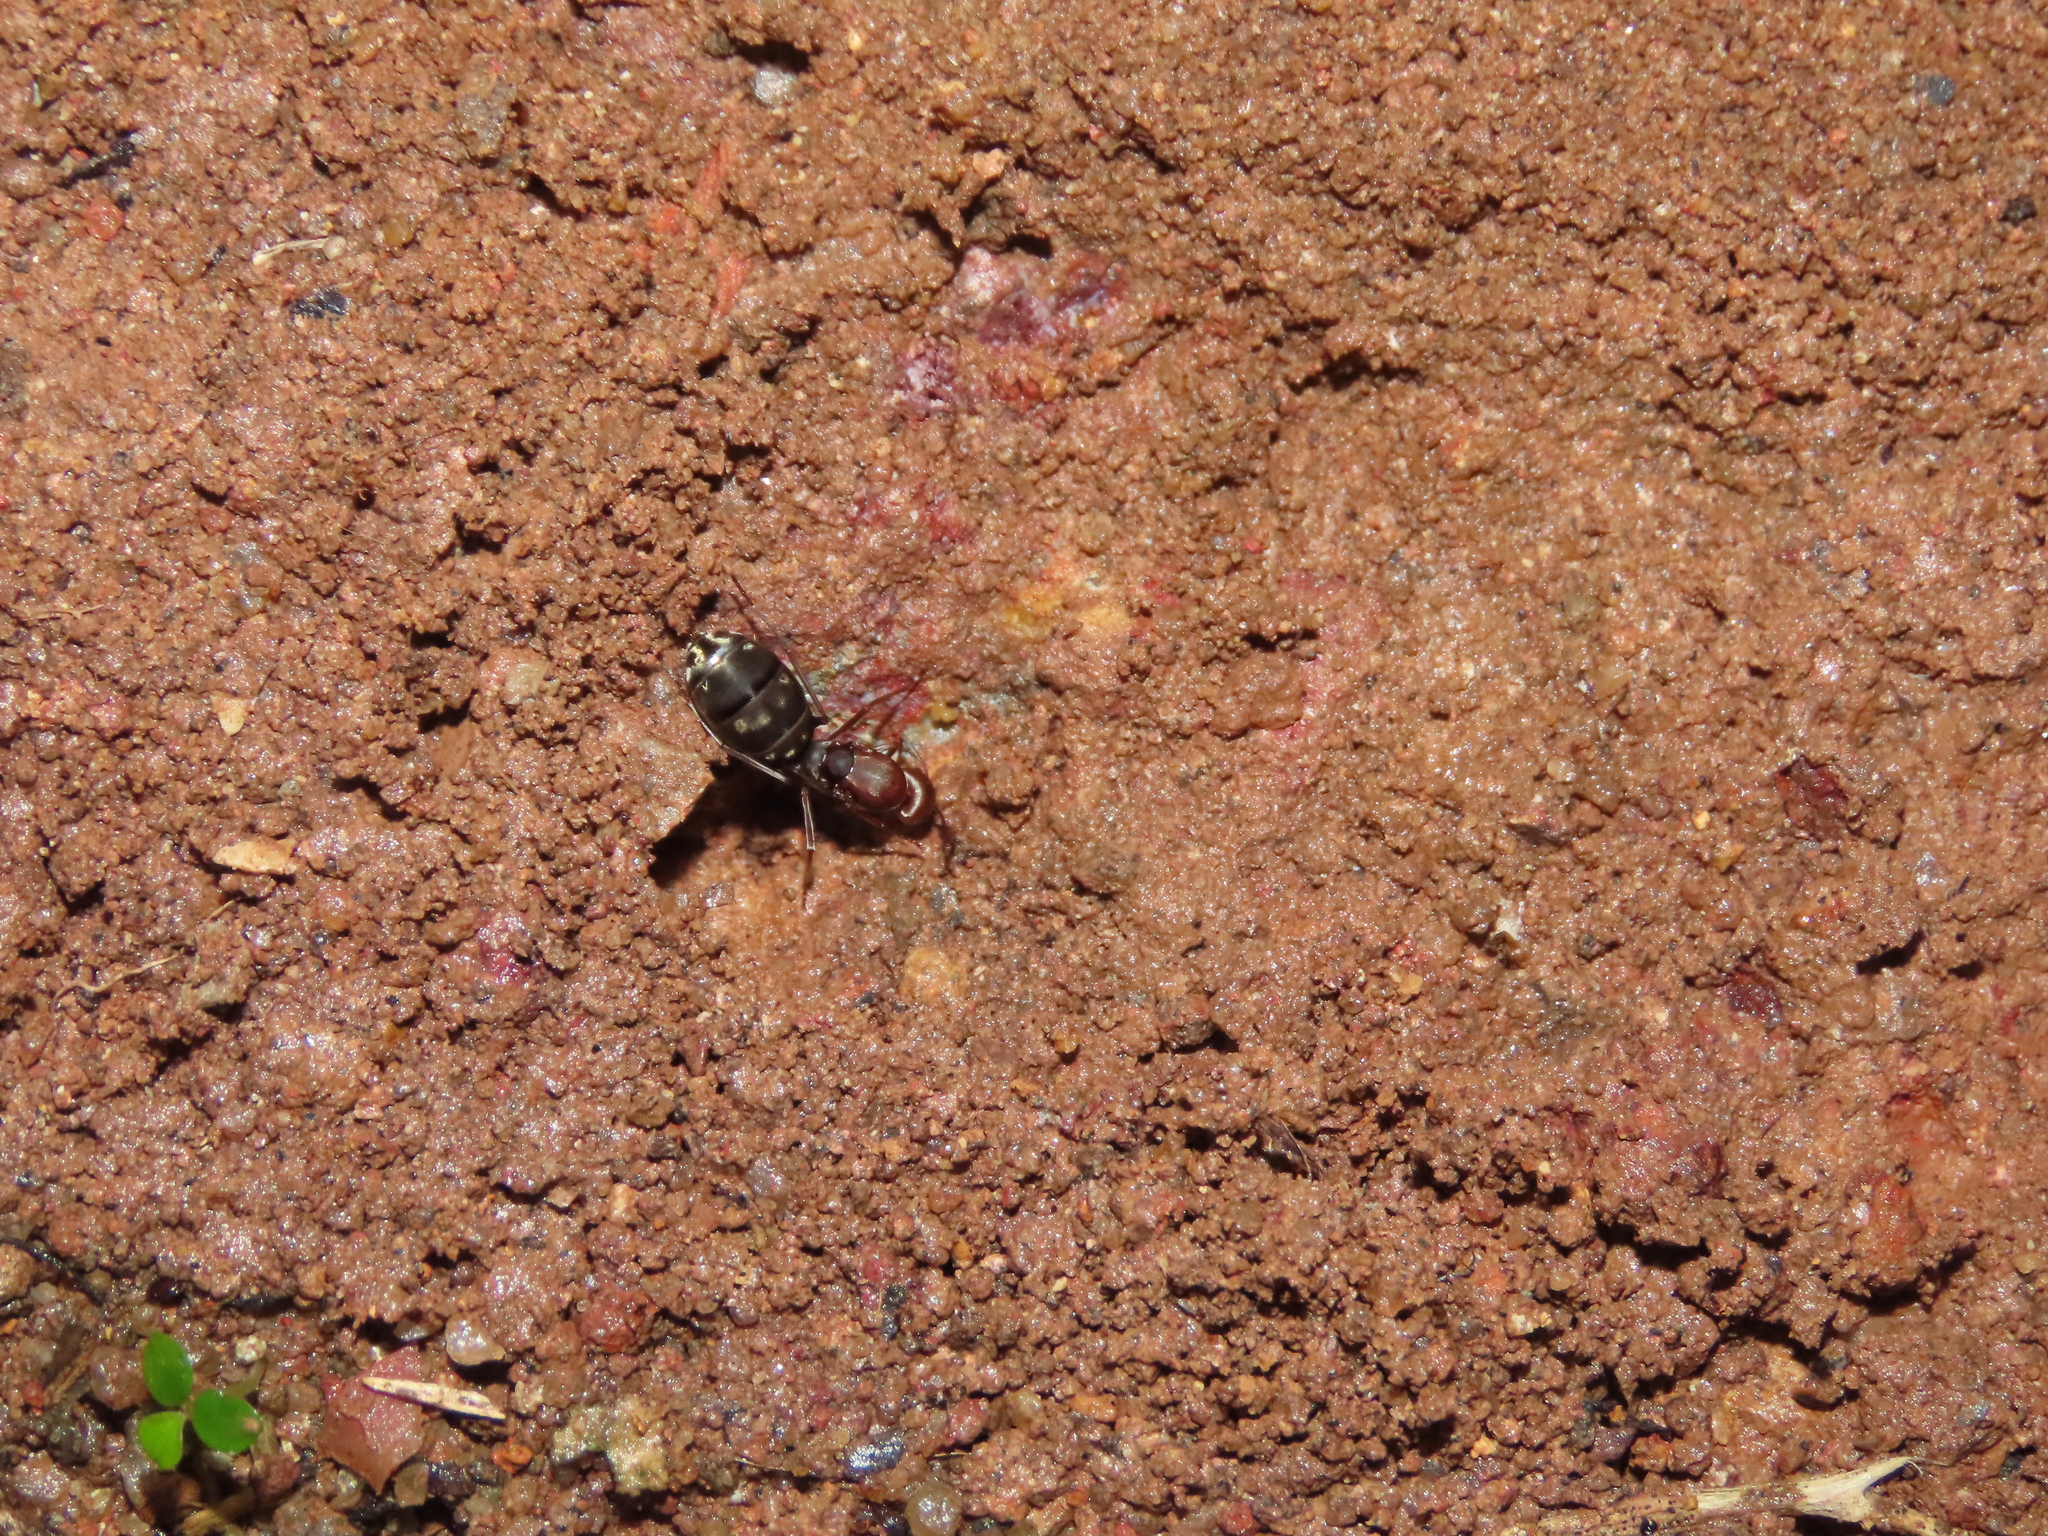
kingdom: Animalia
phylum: Arthropoda
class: Insecta
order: Hymenoptera
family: Formicidae
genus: Camponotus
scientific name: Camponotus rufoglaucus
